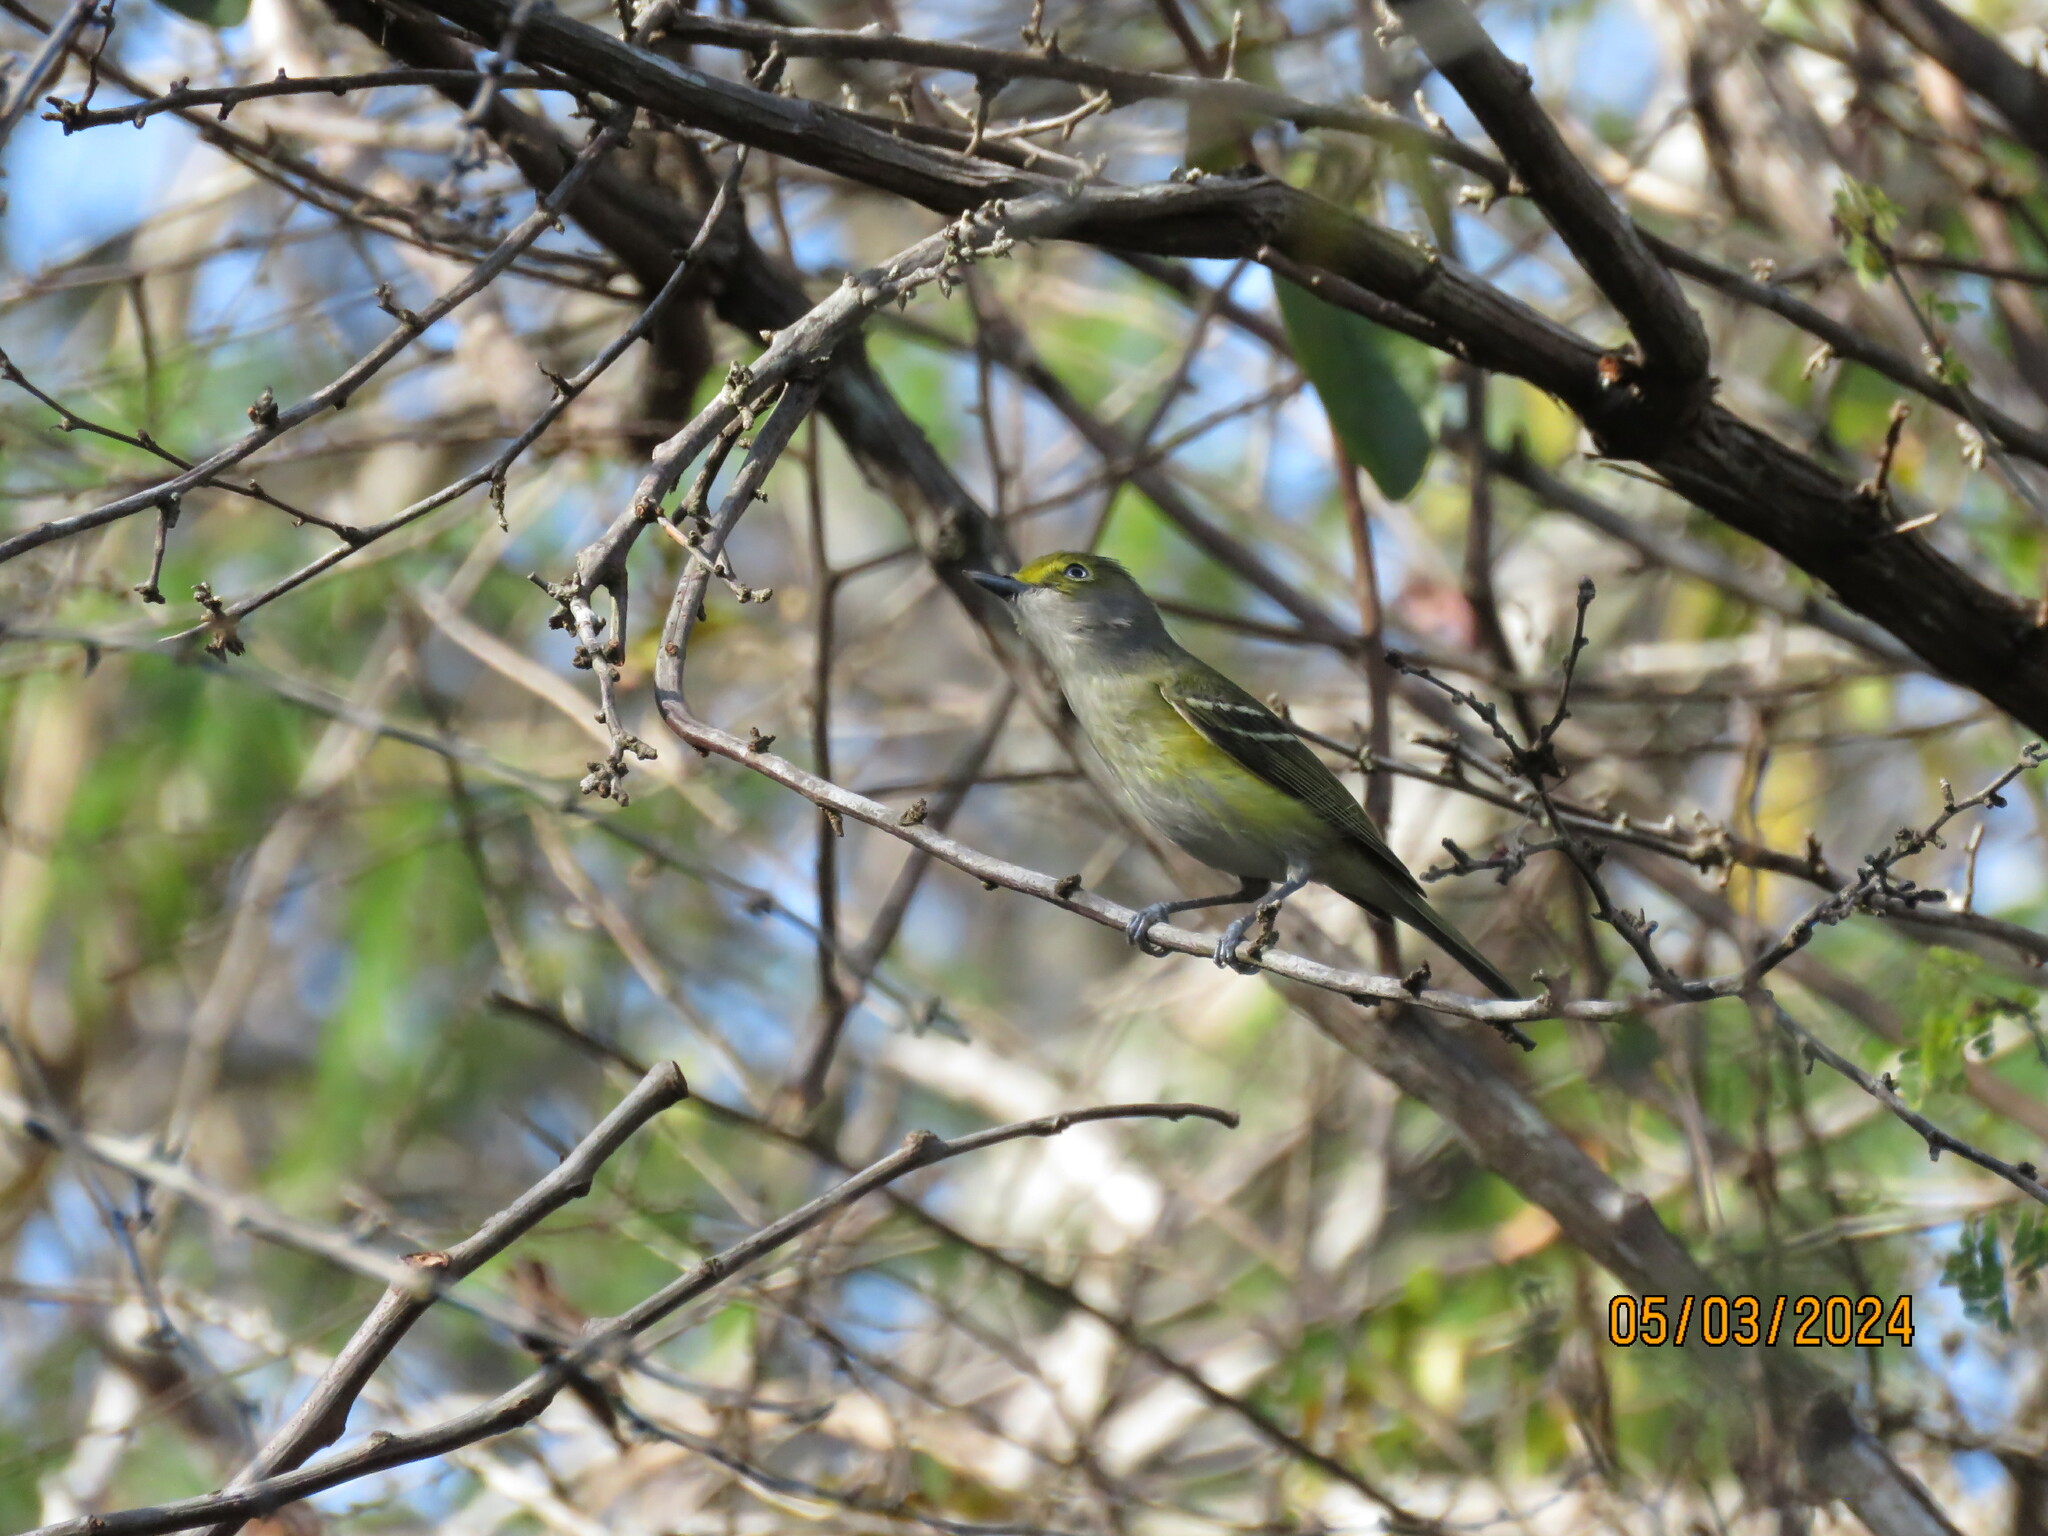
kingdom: Animalia
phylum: Chordata
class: Aves
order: Passeriformes
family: Vireonidae
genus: Vireo
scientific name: Vireo griseus
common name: White-eyed vireo
